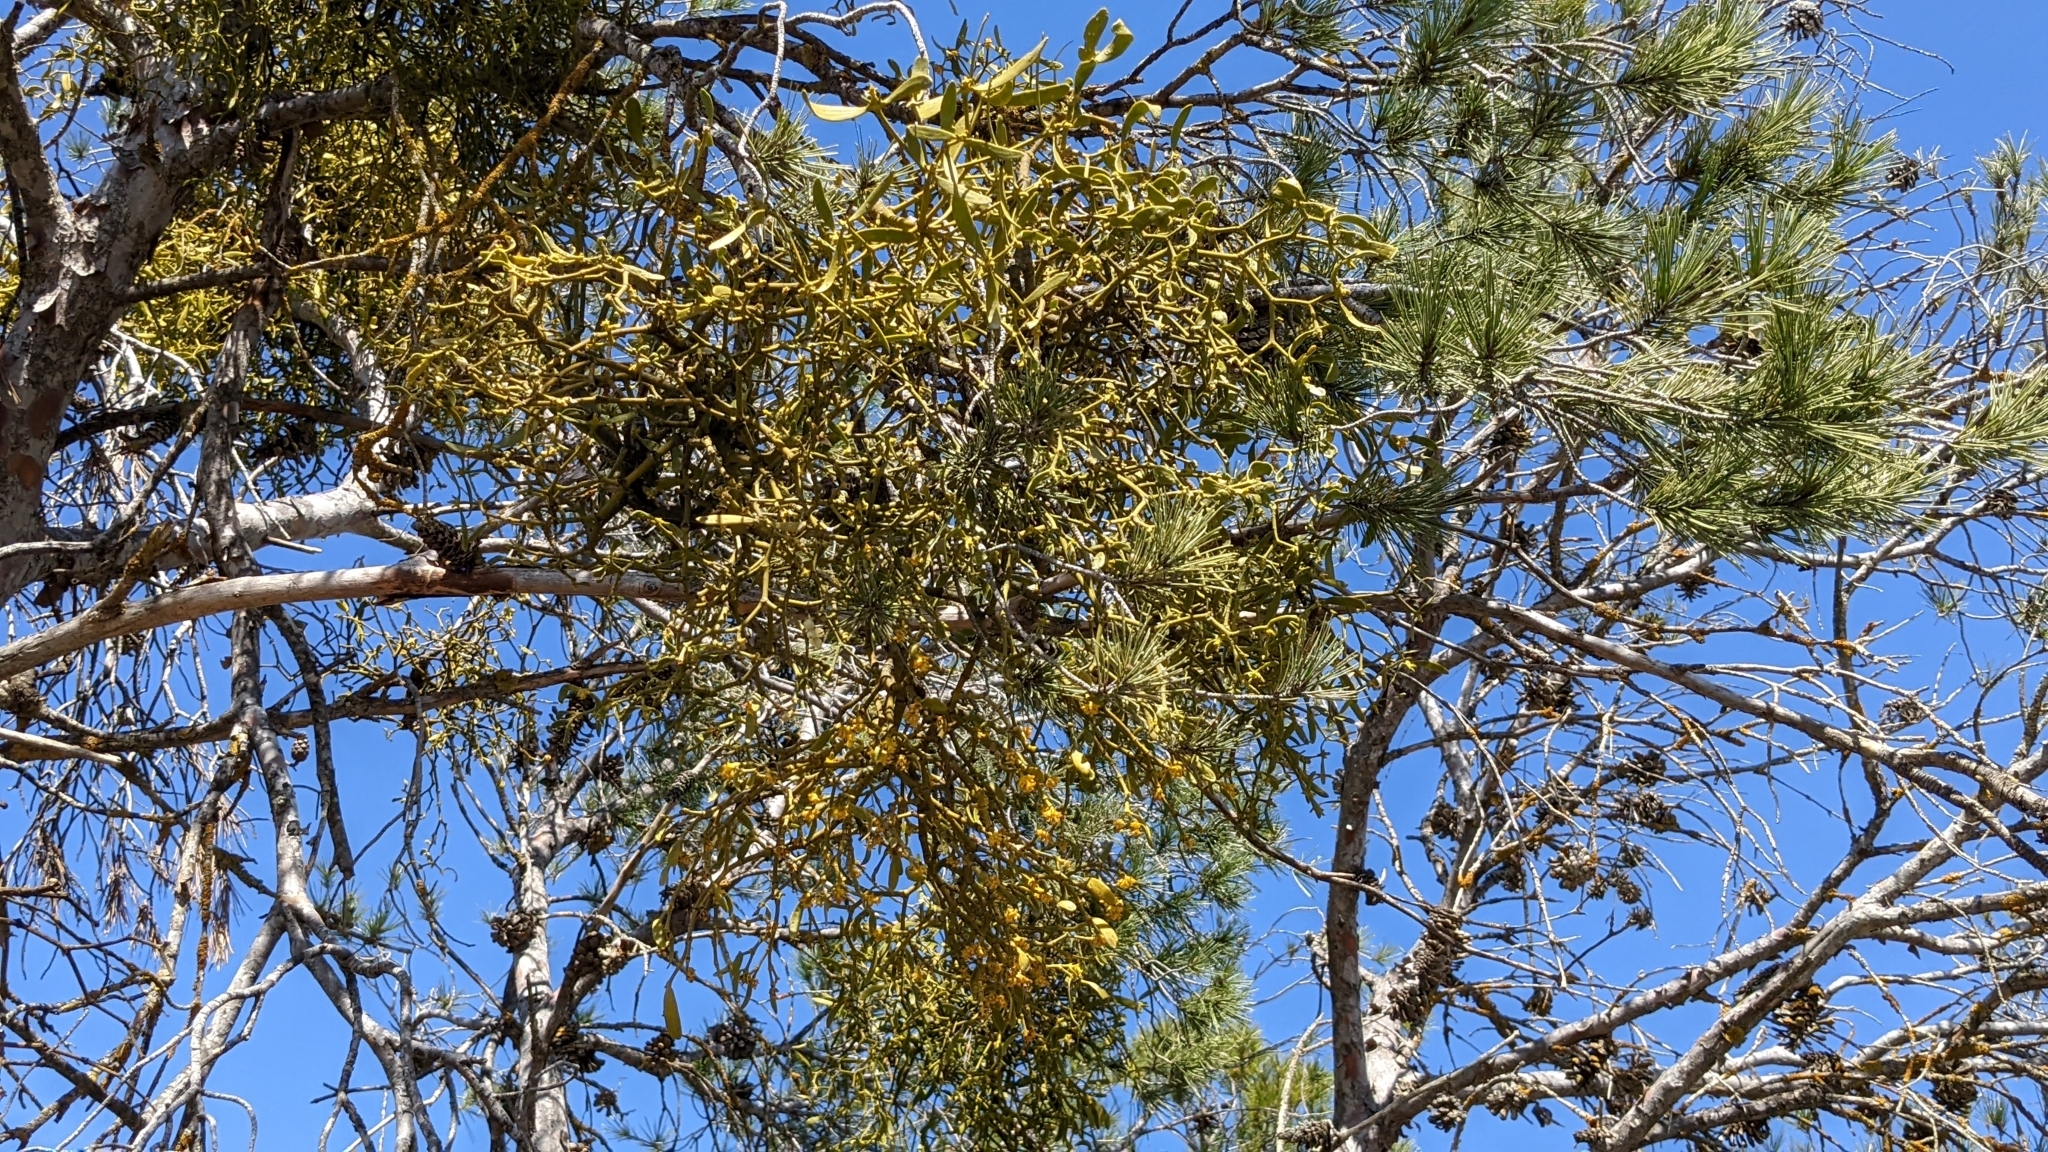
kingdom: Plantae
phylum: Tracheophyta
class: Magnoliopsida
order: Santalales
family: Viscaceae
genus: Viscum
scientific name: Viscum album
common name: Mistletoe
